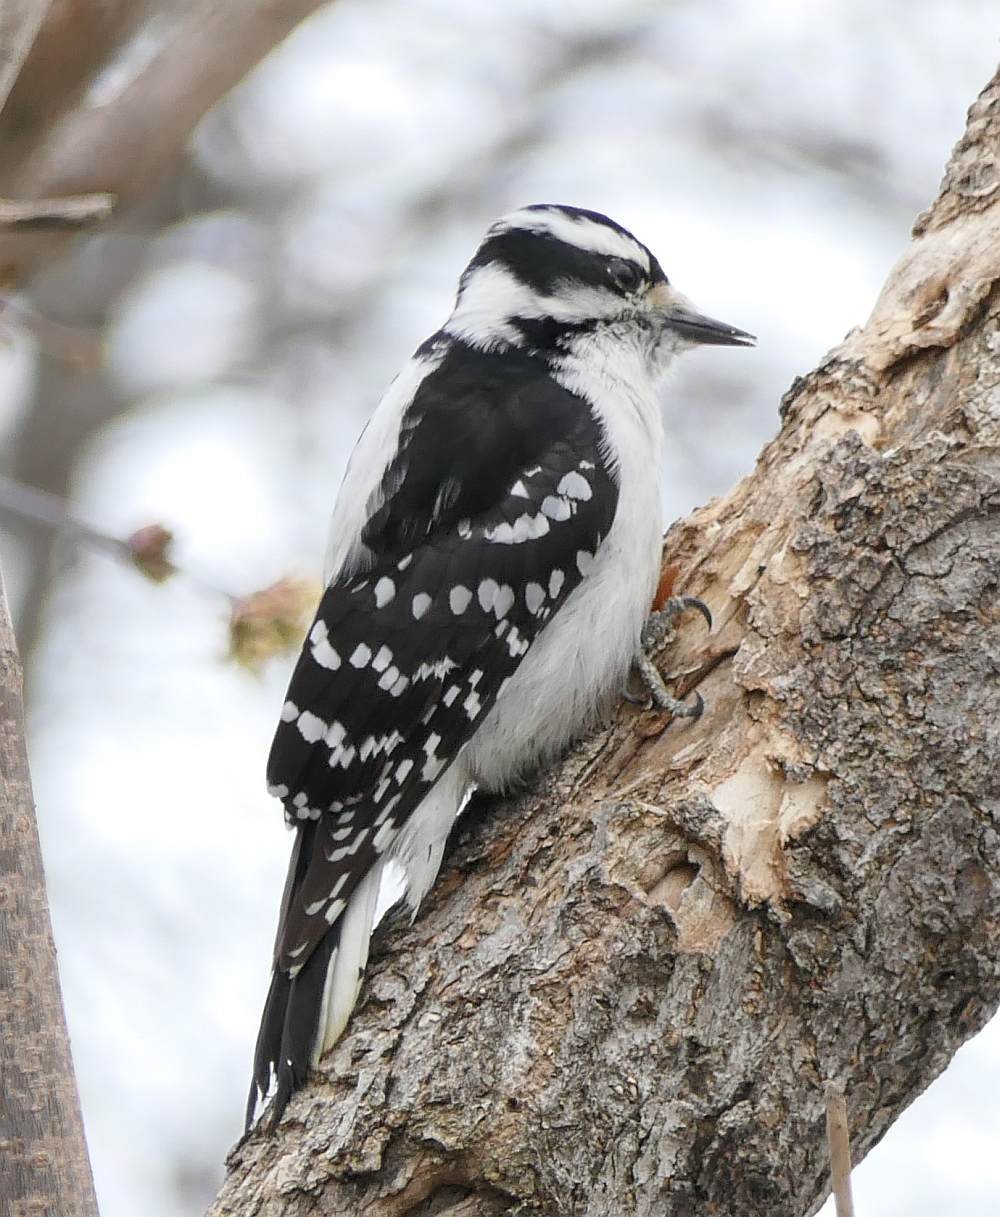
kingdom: Animalia
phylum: Chordata
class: Aves
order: Piciformes
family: Picidae
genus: Dryobates
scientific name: Dryobates pubescens
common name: Downy woodpecker
